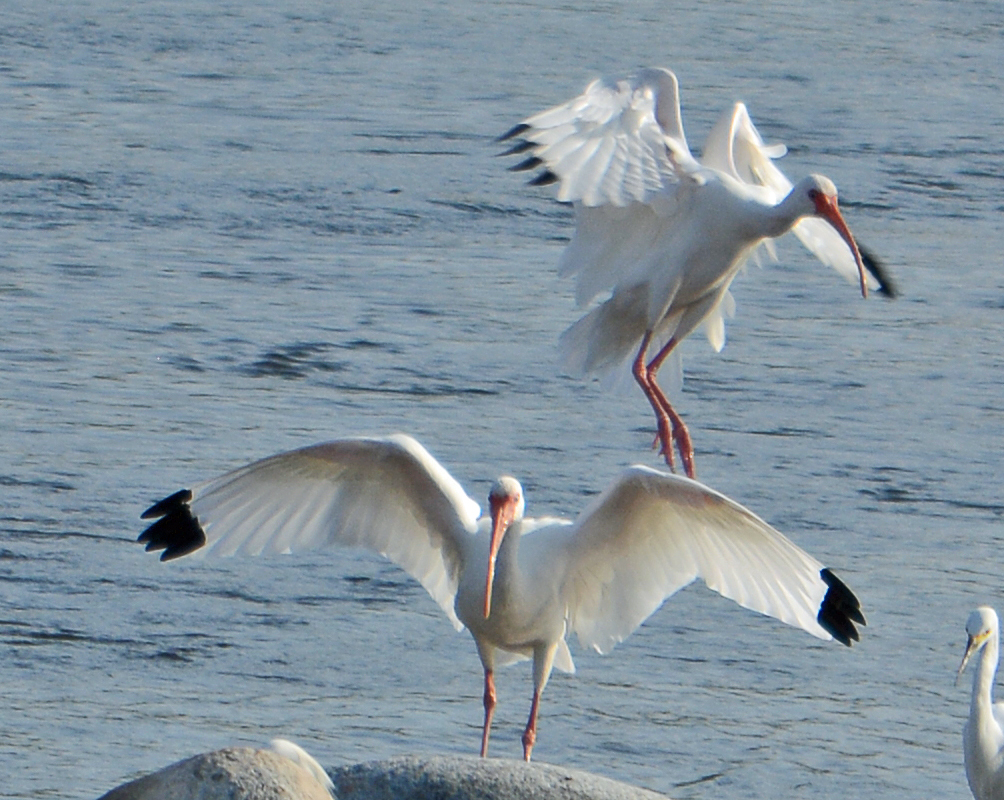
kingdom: Animalia
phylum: Chordata
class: Aves
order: Pelecaniformes
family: Threskiornithidae
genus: Eudocimus
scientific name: Eudocimus albus
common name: White ibis
